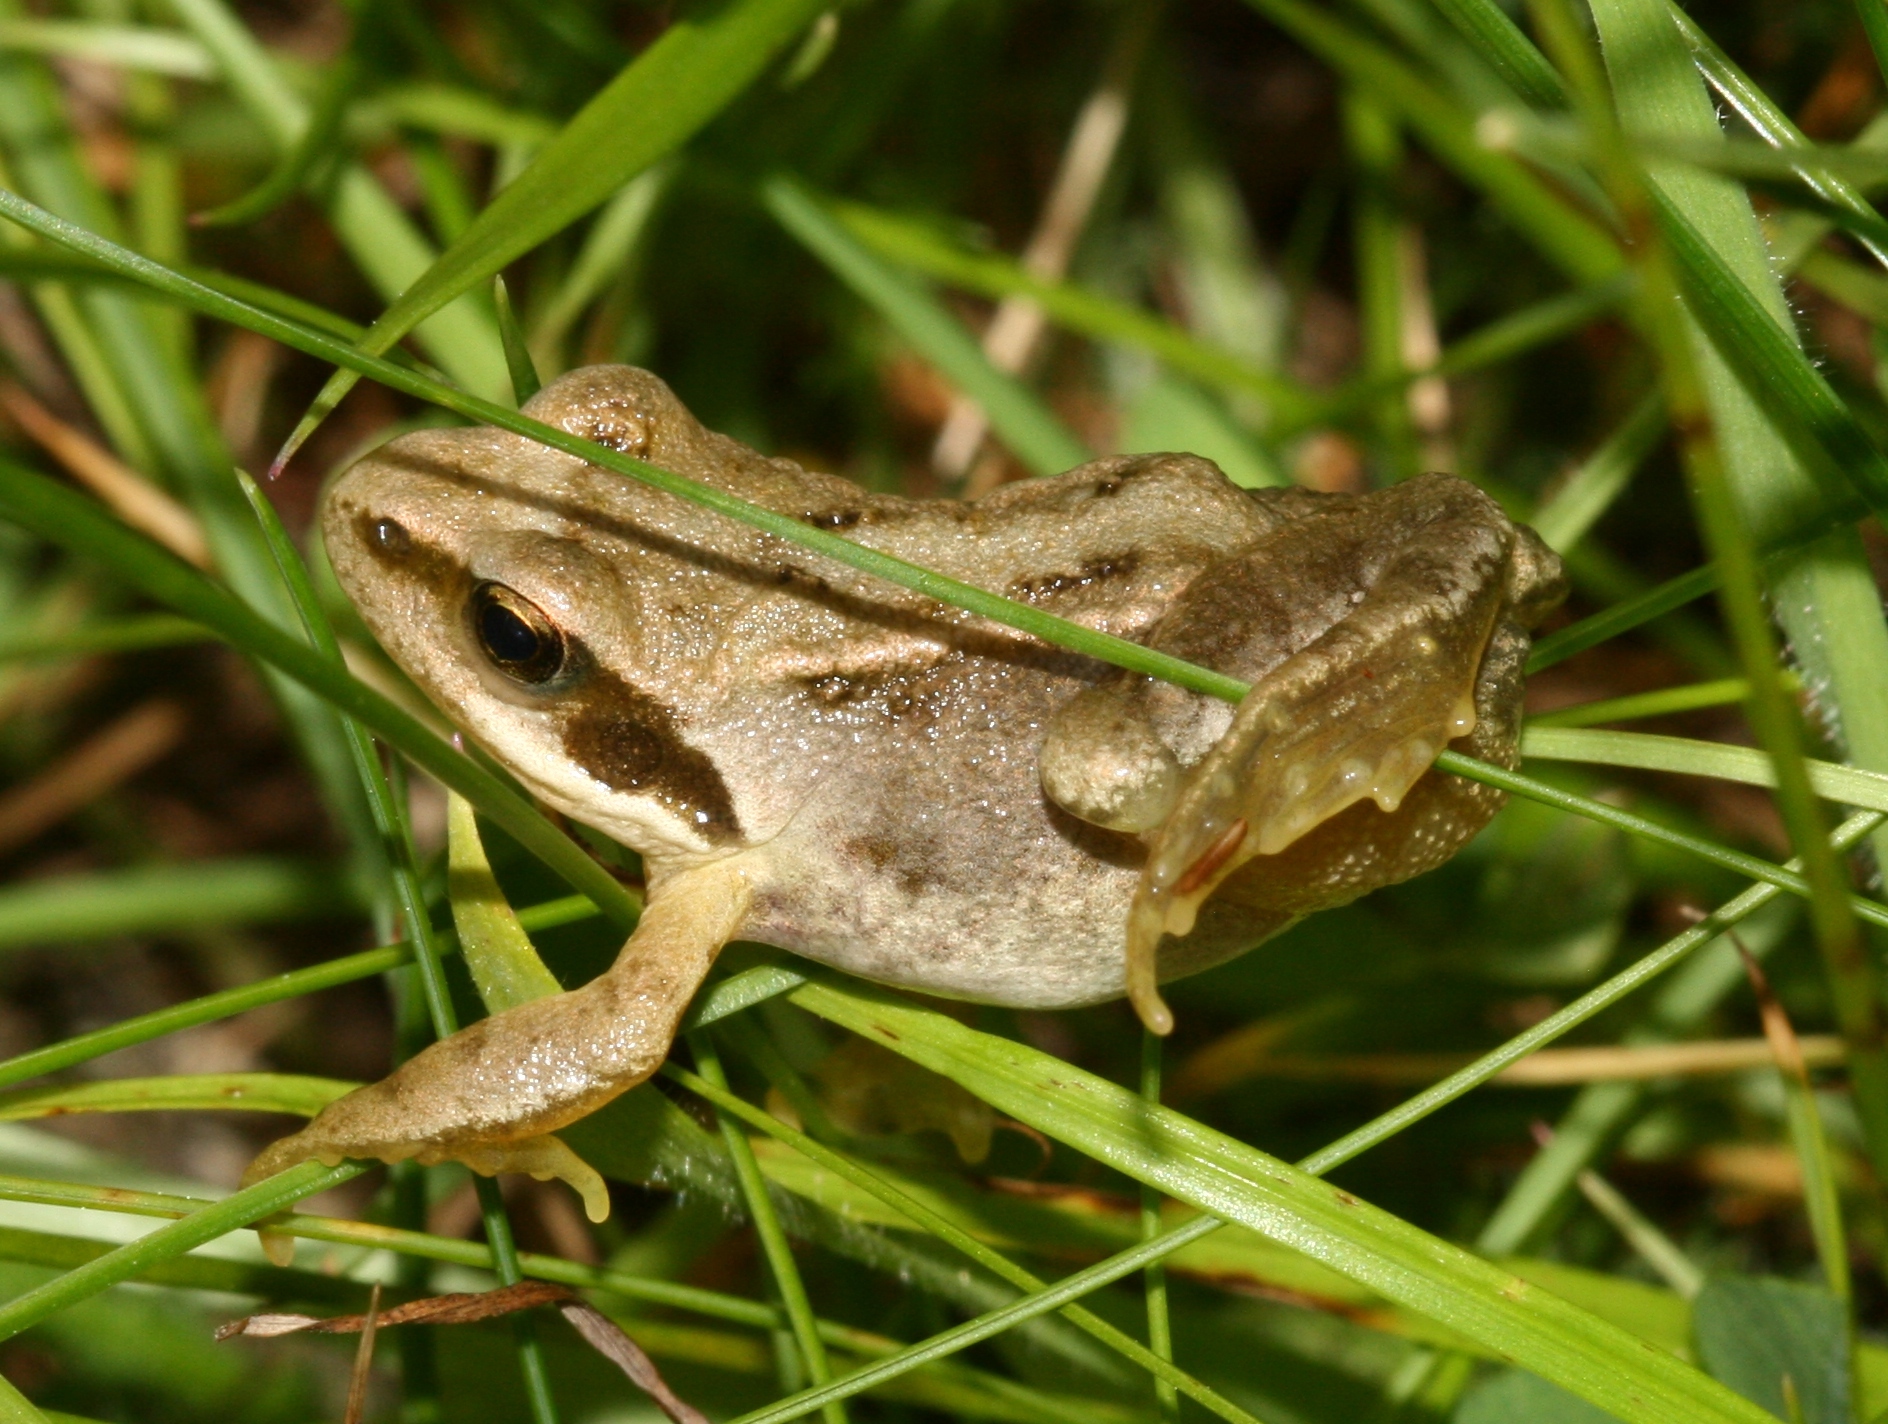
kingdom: Animalia
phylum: Chordata
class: Amphibia
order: Anura
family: Ranidae
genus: Rana
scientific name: Rana temporaria
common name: Common frog
